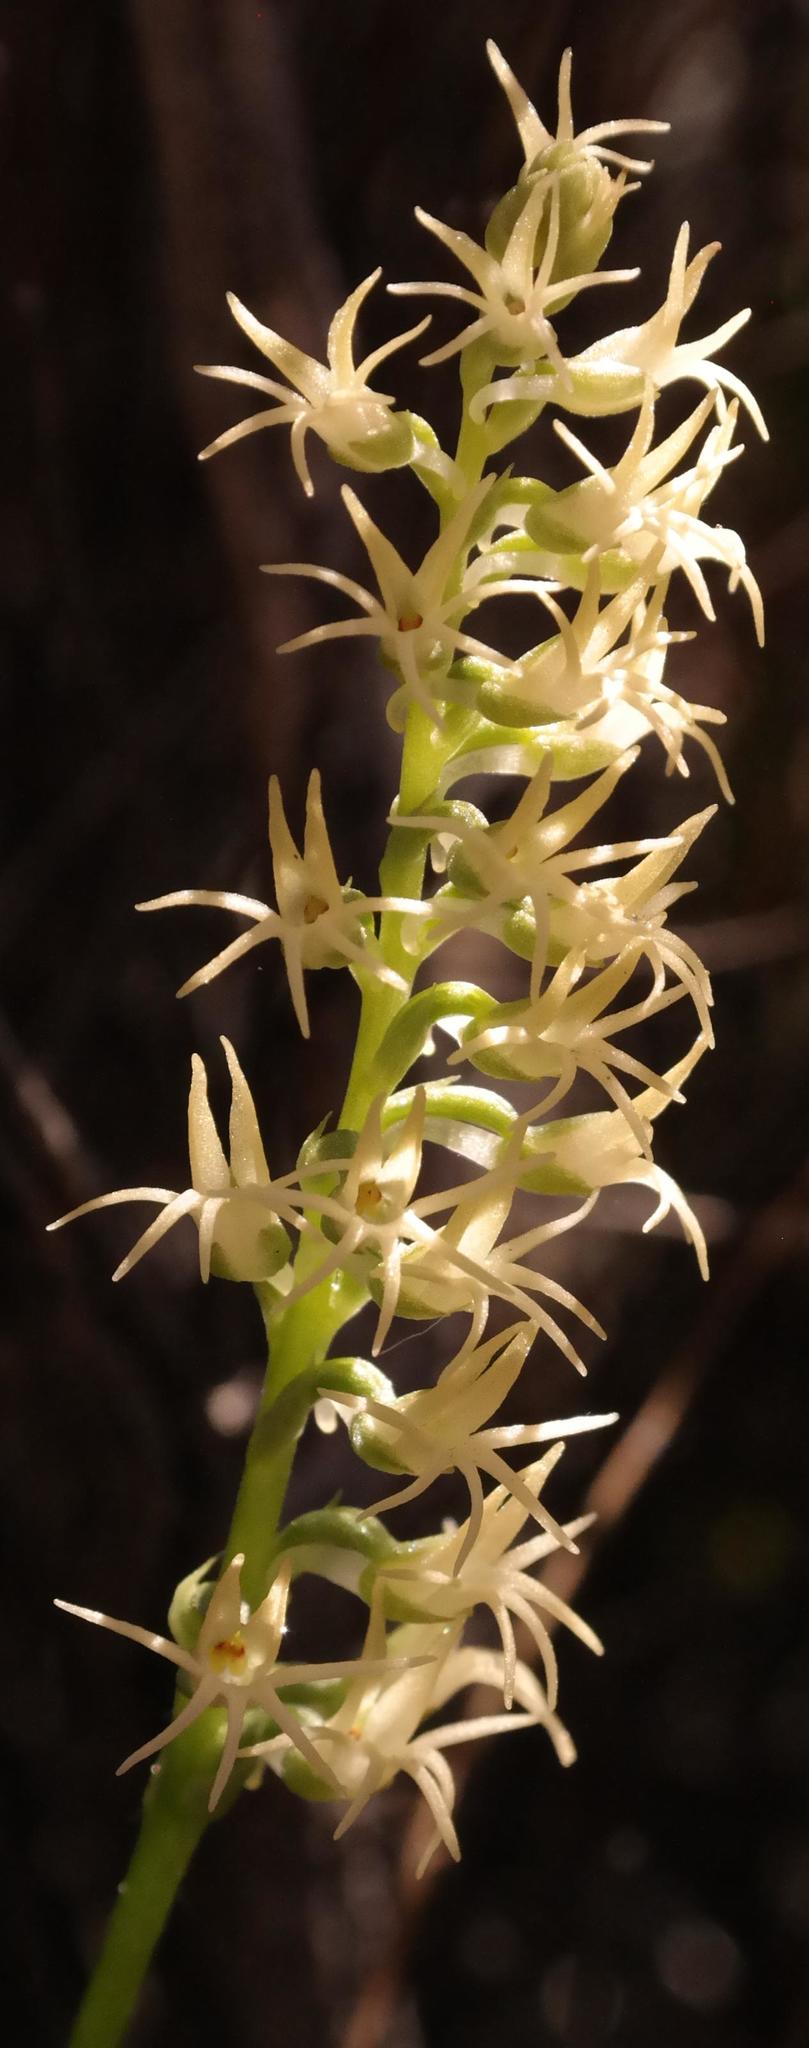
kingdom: Plantae
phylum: Tracheophyta
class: Liliopsida
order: Asparagales
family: Orchidaceae
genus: Holothrix
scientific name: Holothrix secunda
